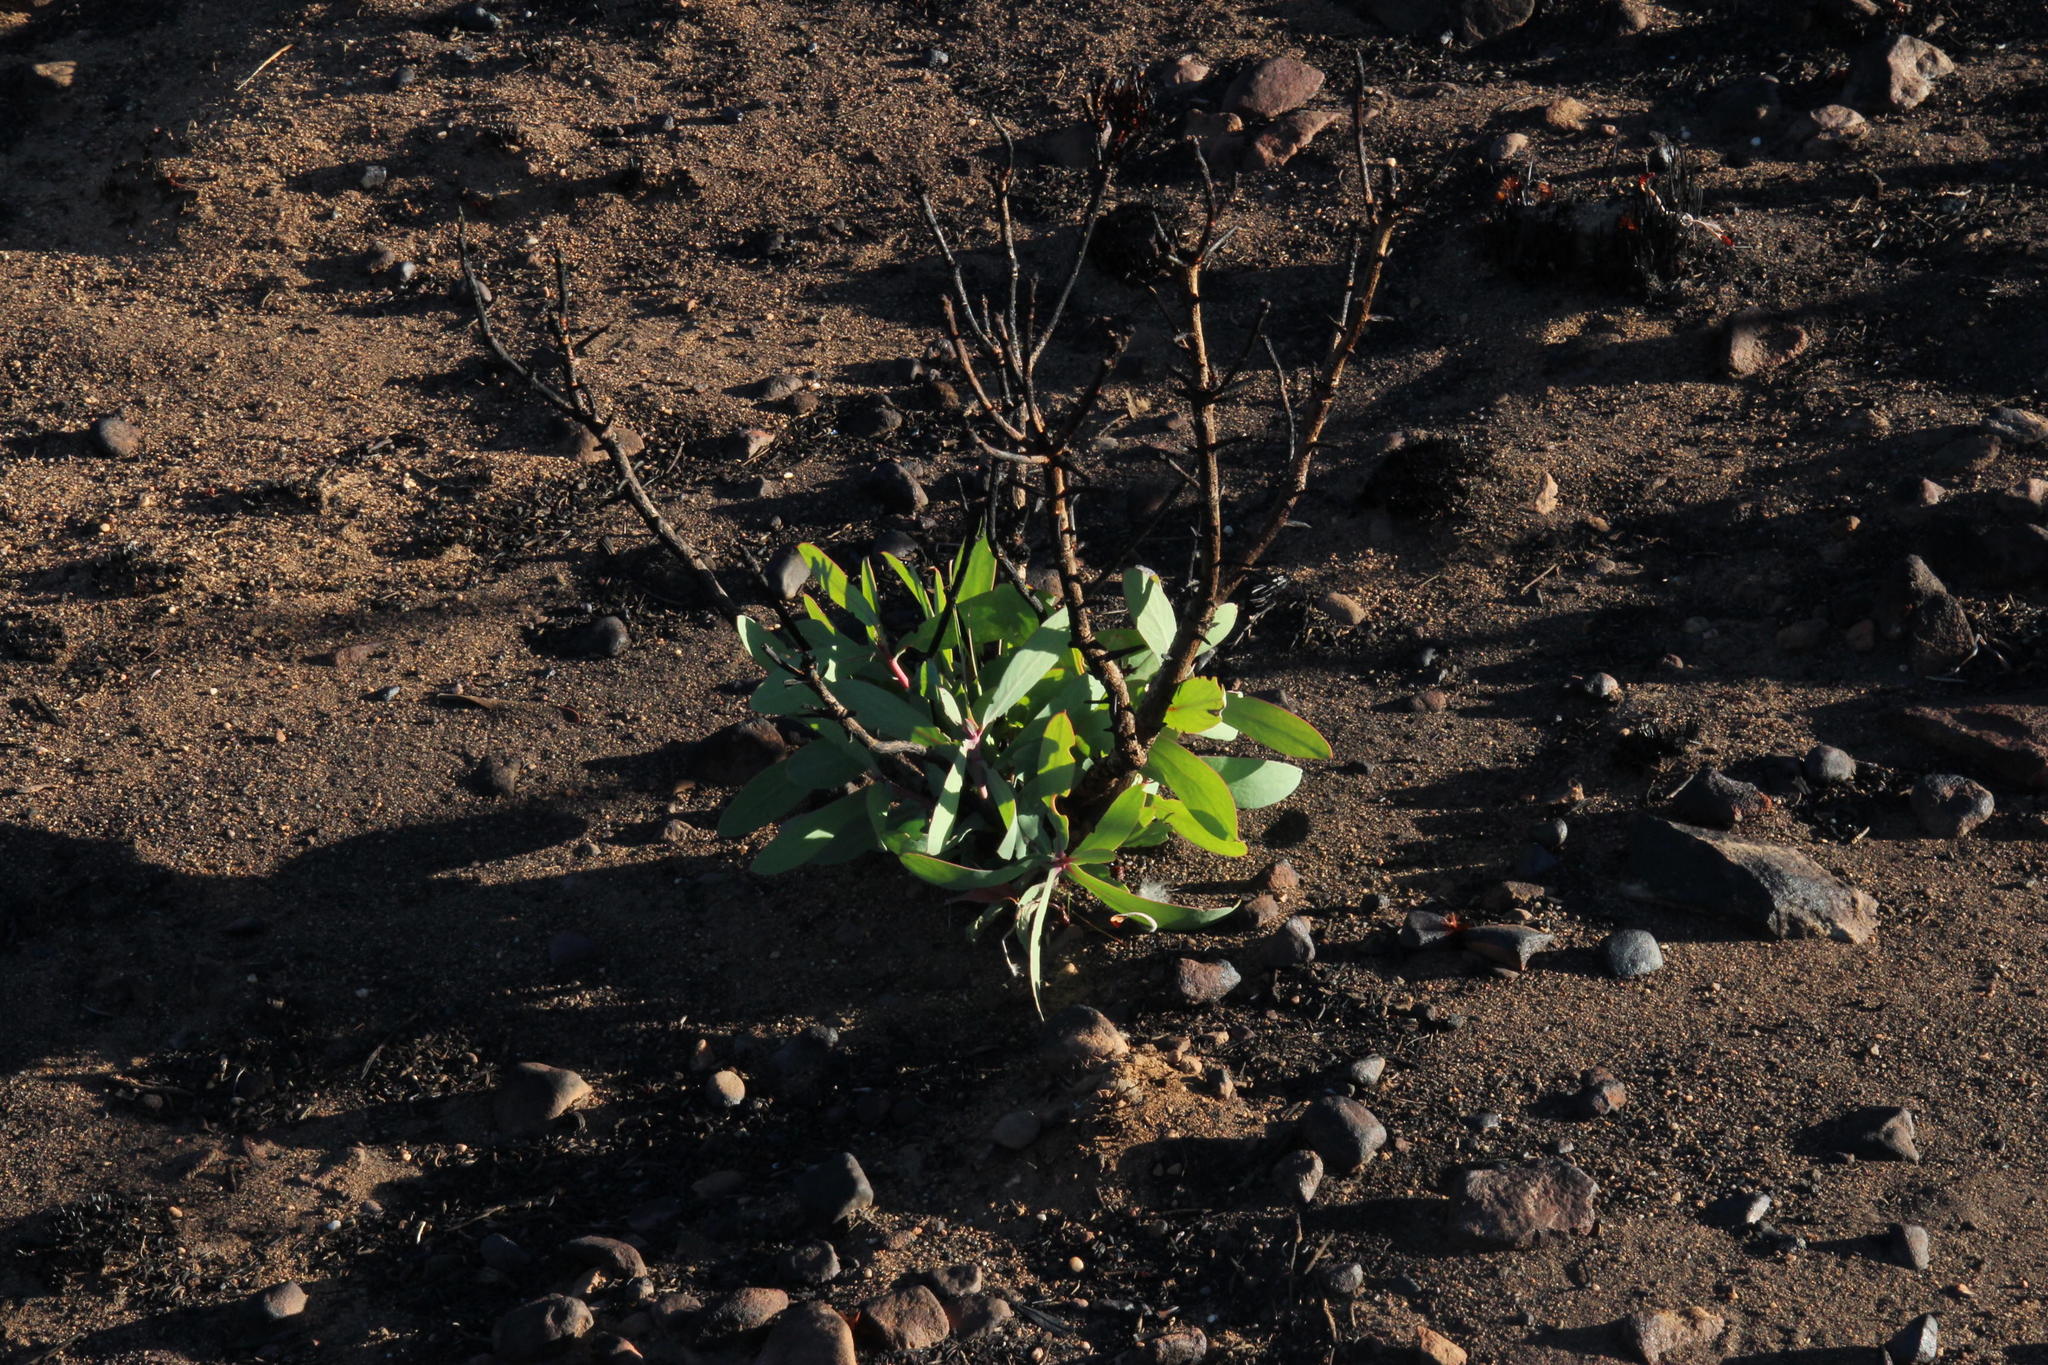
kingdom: Plantae
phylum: Tracheophyta
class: Magnoliopsida
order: Proteales
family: Proteaceae
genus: Protea
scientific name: Protea nitida
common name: Tree protea
